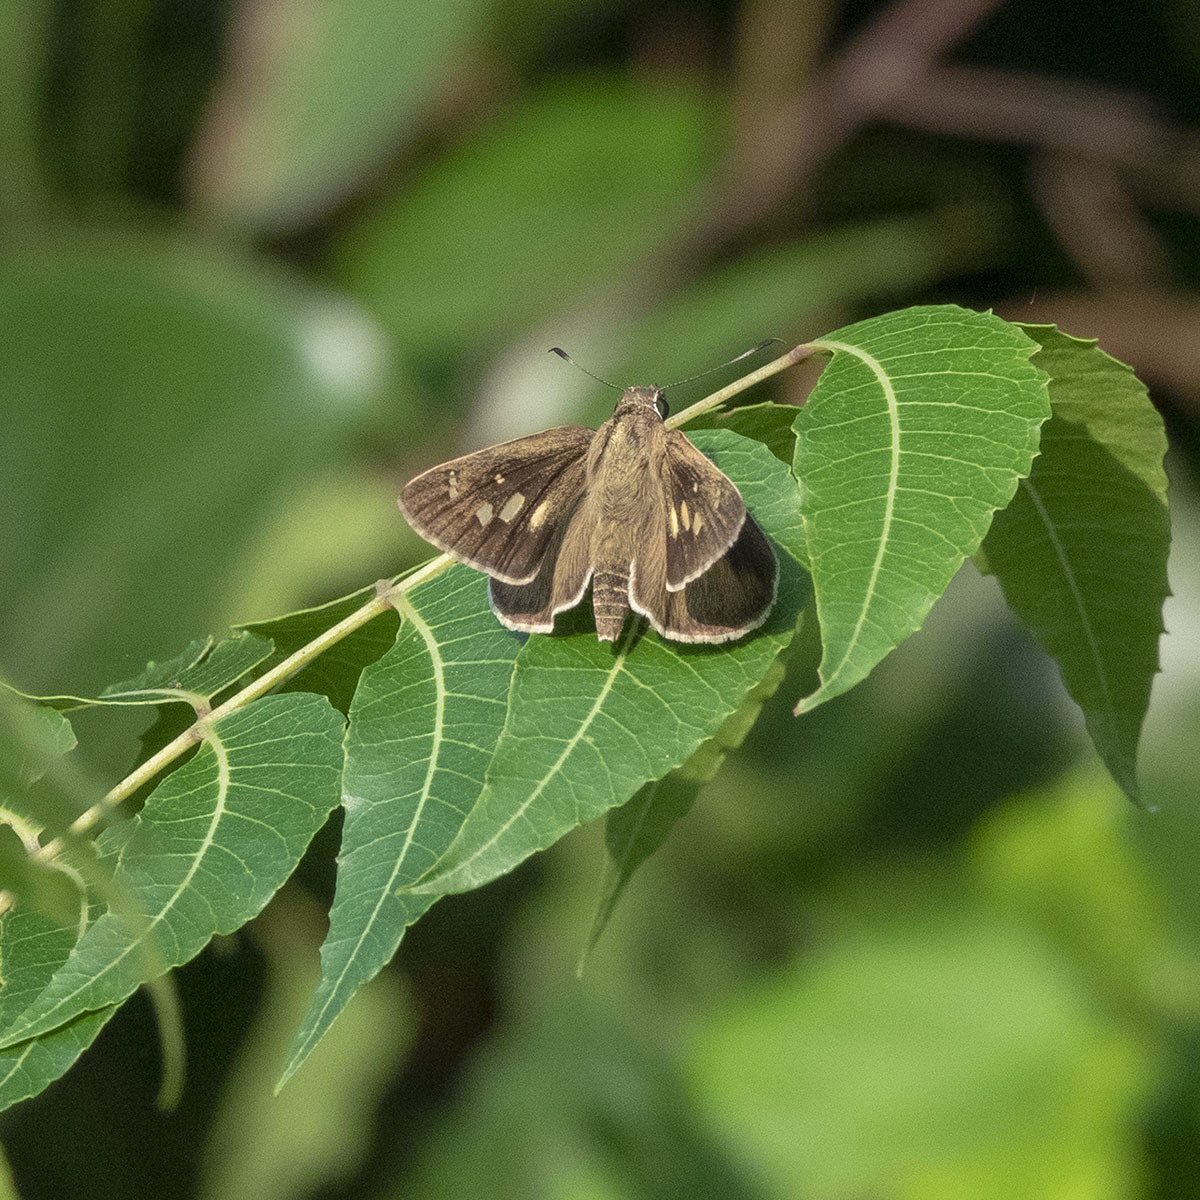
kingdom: Animalia
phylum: Arthropoda
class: Insecta
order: Lepidoptera
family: Hesperiidae
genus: Suastus
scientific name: Suastus gremius
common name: Indian palm bob
